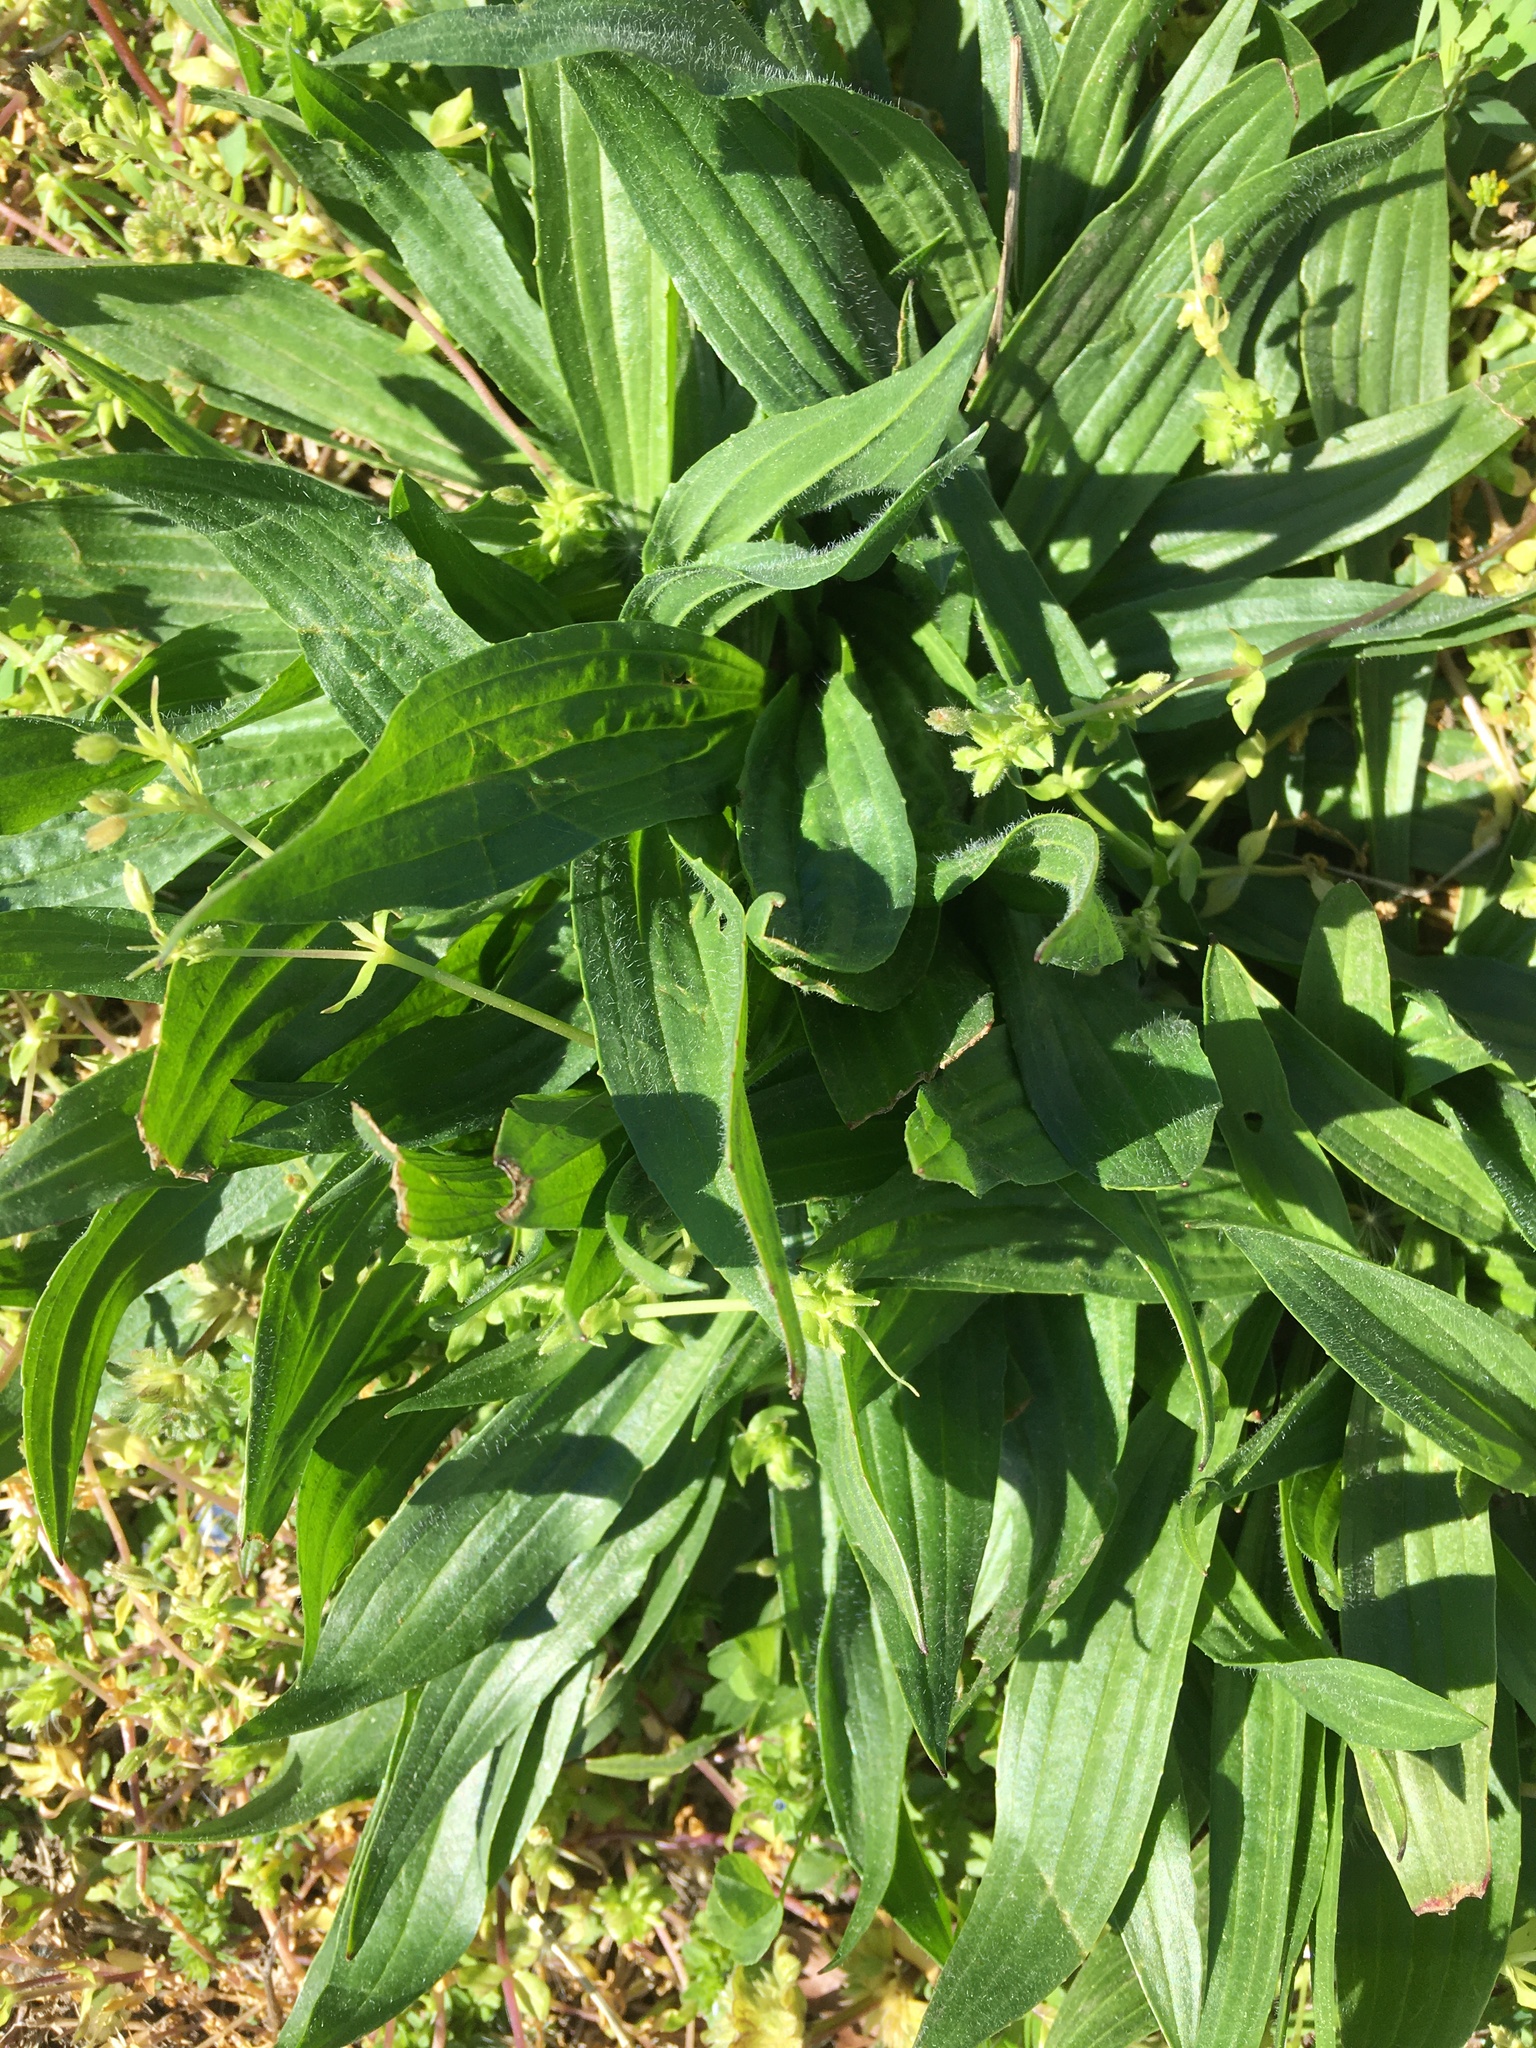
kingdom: Plantae
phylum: Tracheophyta
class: Magnoliopsida
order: Lamiales
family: Plantaginaceae
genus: Plantago
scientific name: Plantago lanceolata
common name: Ribwort plantain
